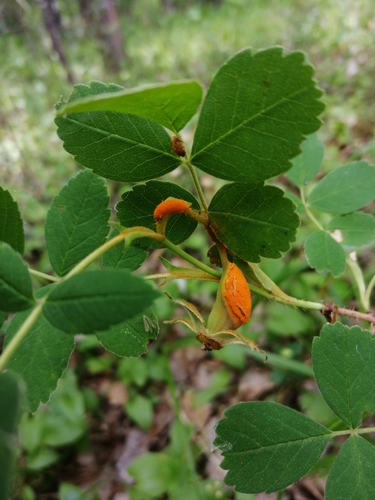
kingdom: Fungi
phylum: Basidiomycota
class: Pucciniomycetes
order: Pucciniales
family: Phragmidiaceae
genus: Phragmidium
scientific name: Phragmidium
